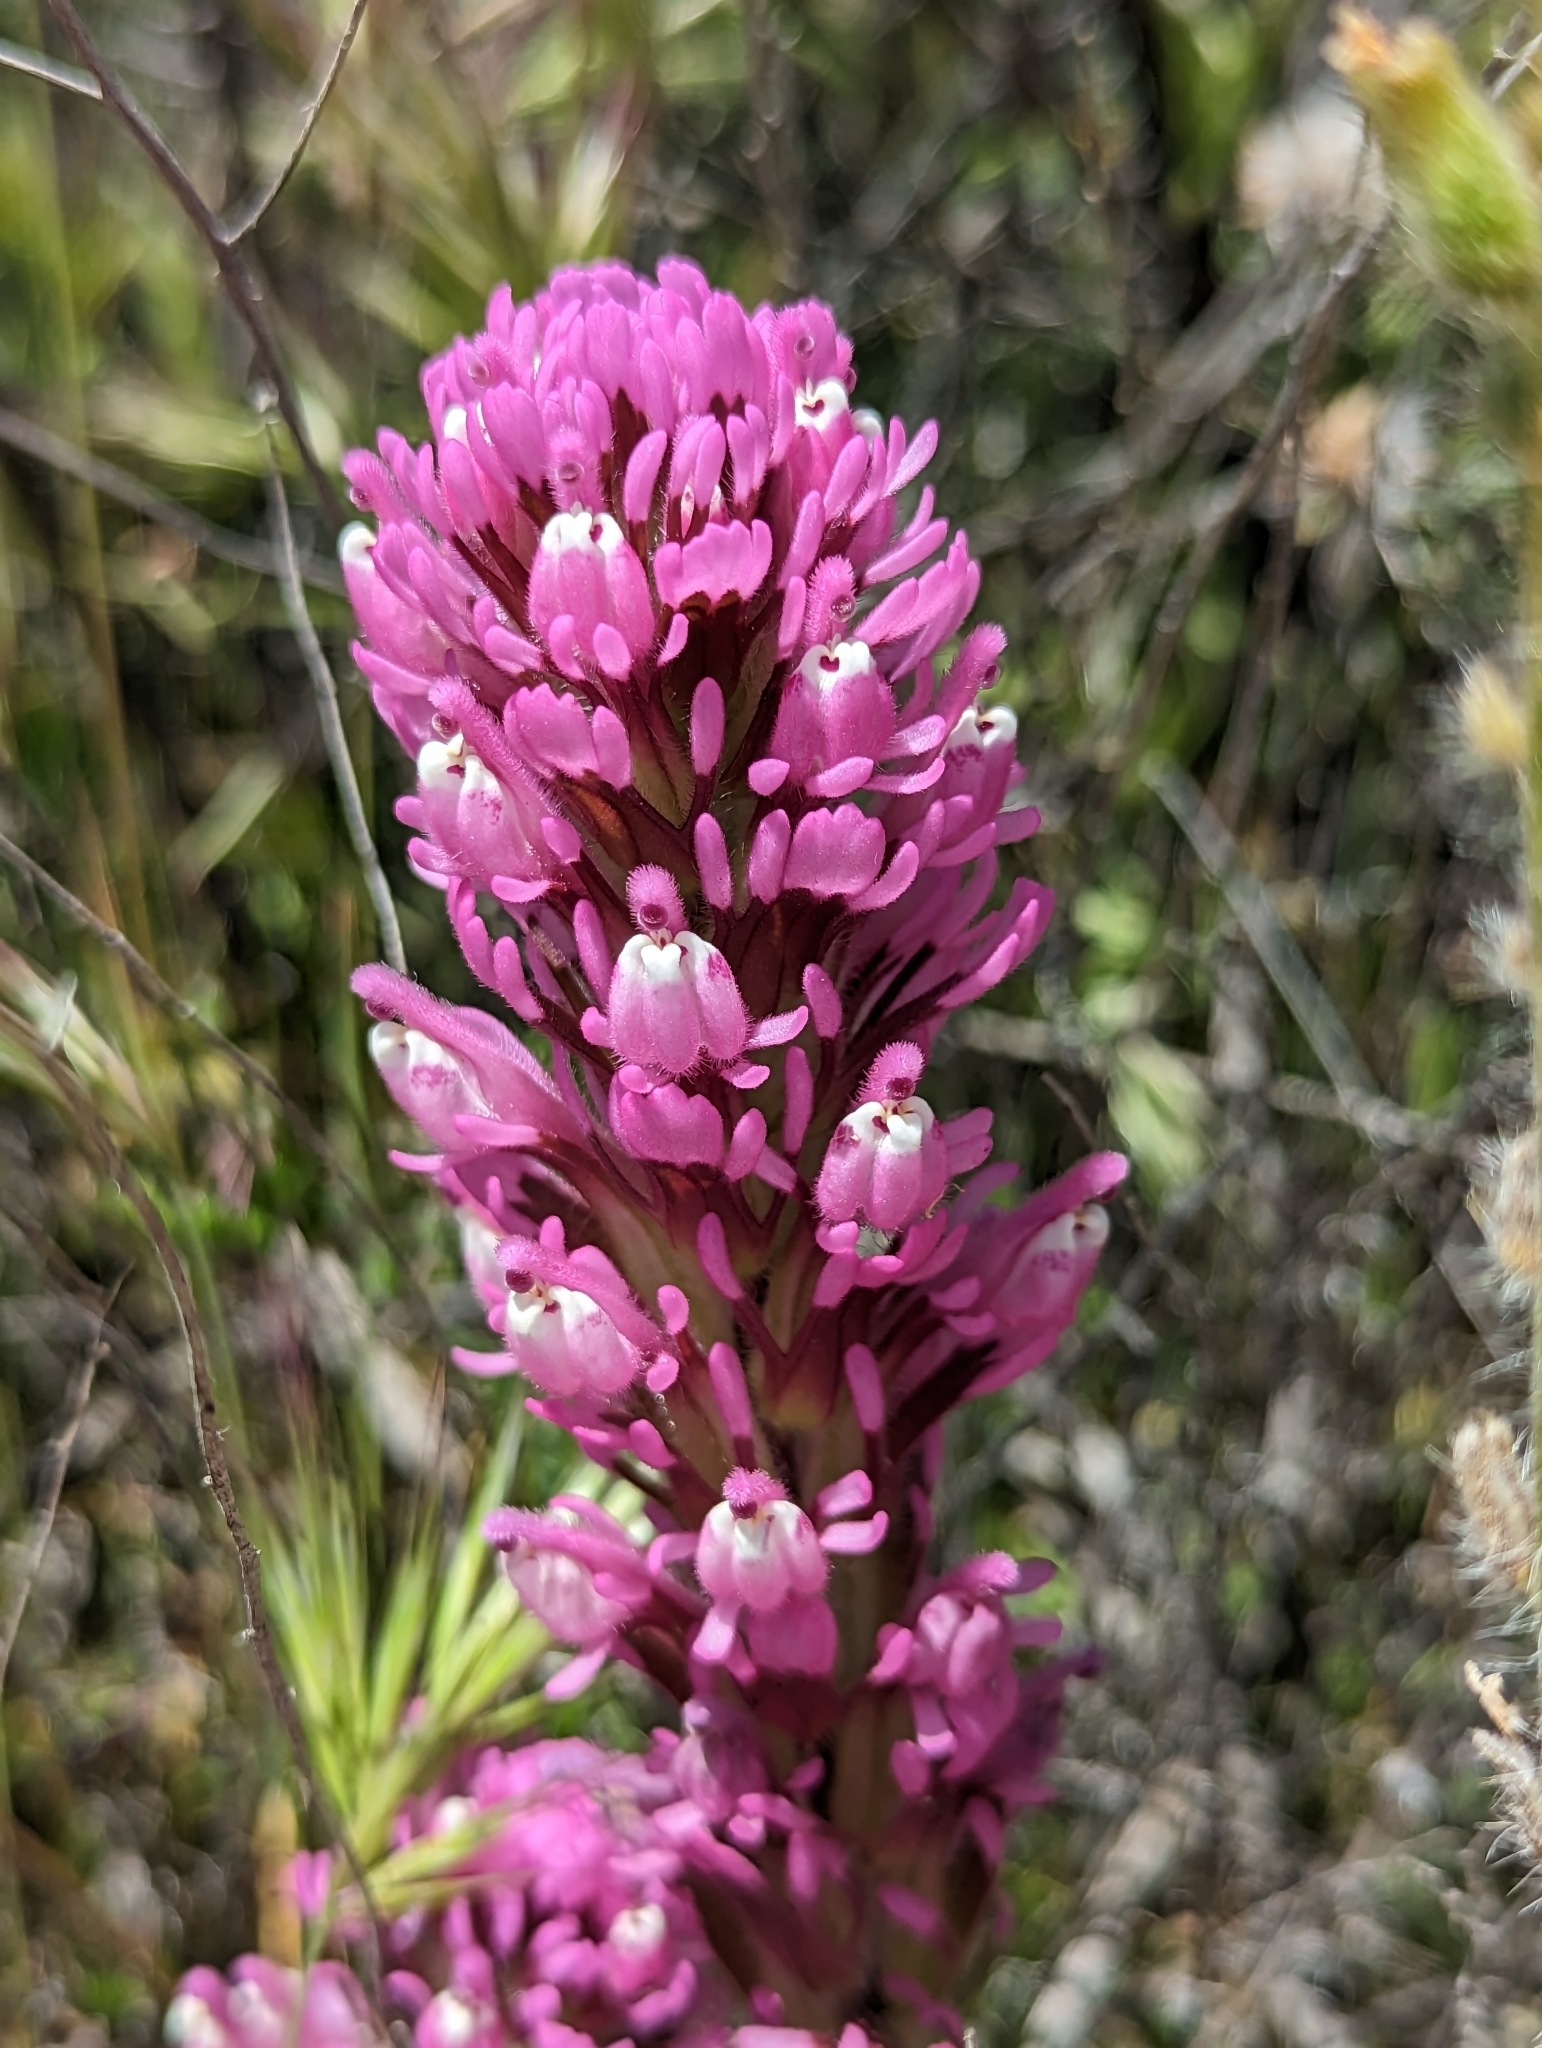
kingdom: Plantae
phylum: Tracheophyta
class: Magnoliopsida
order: Lamiales
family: Orobanchaceae
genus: Castilleja
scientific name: Castilleja exserta
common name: Purple owl-clover
